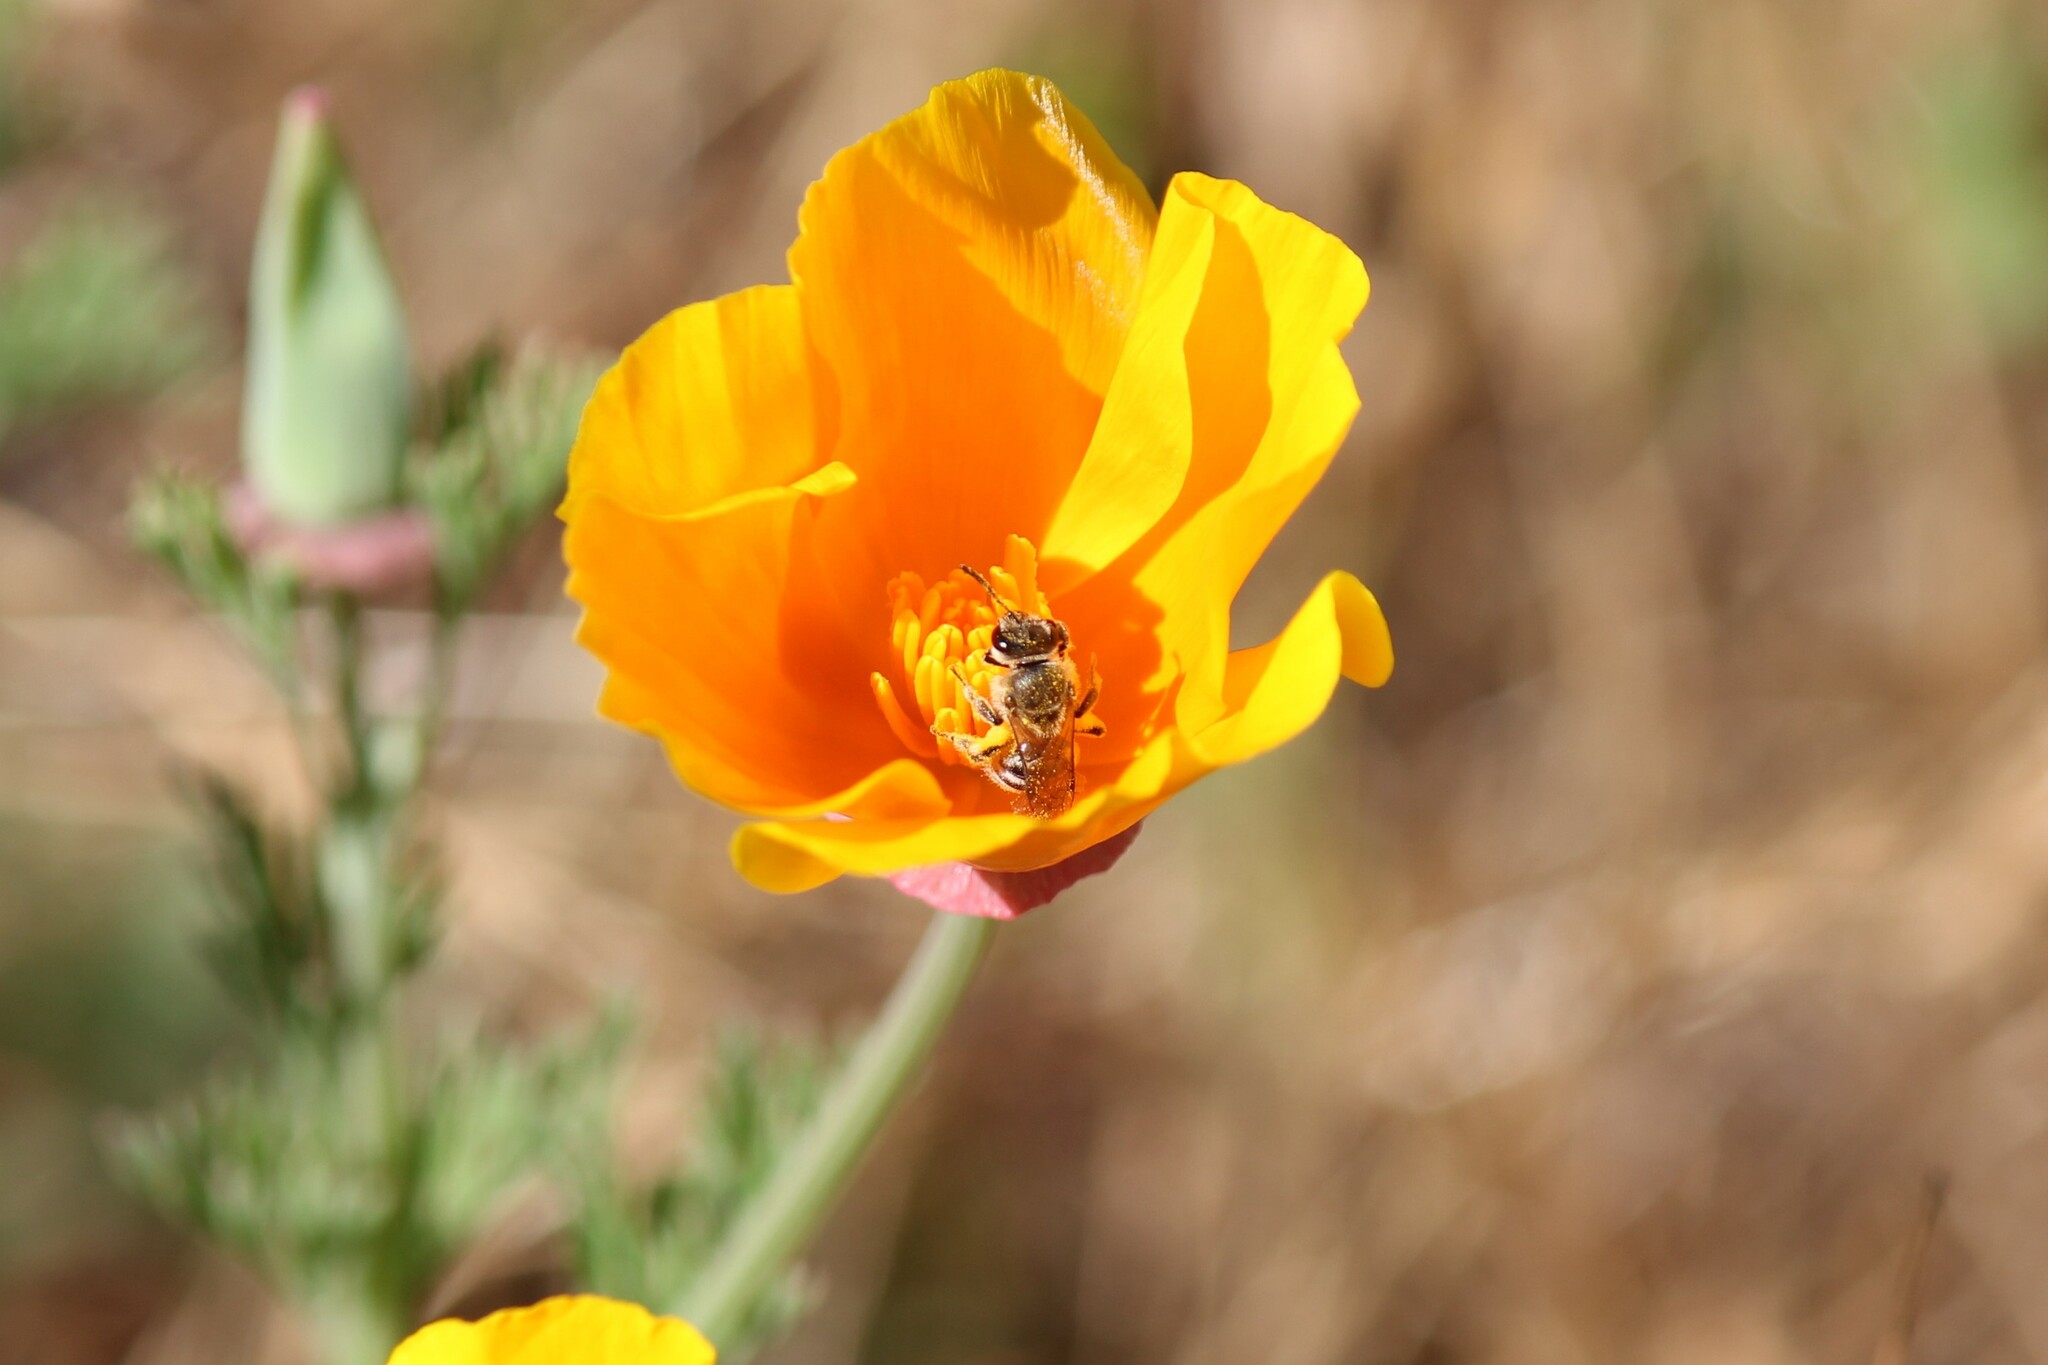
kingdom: Animalia
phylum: Arthropoda
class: Insecta
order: Hymenoptera
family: Halictidae
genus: Lasioglossum
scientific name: Lasioglossum sisymbrii
